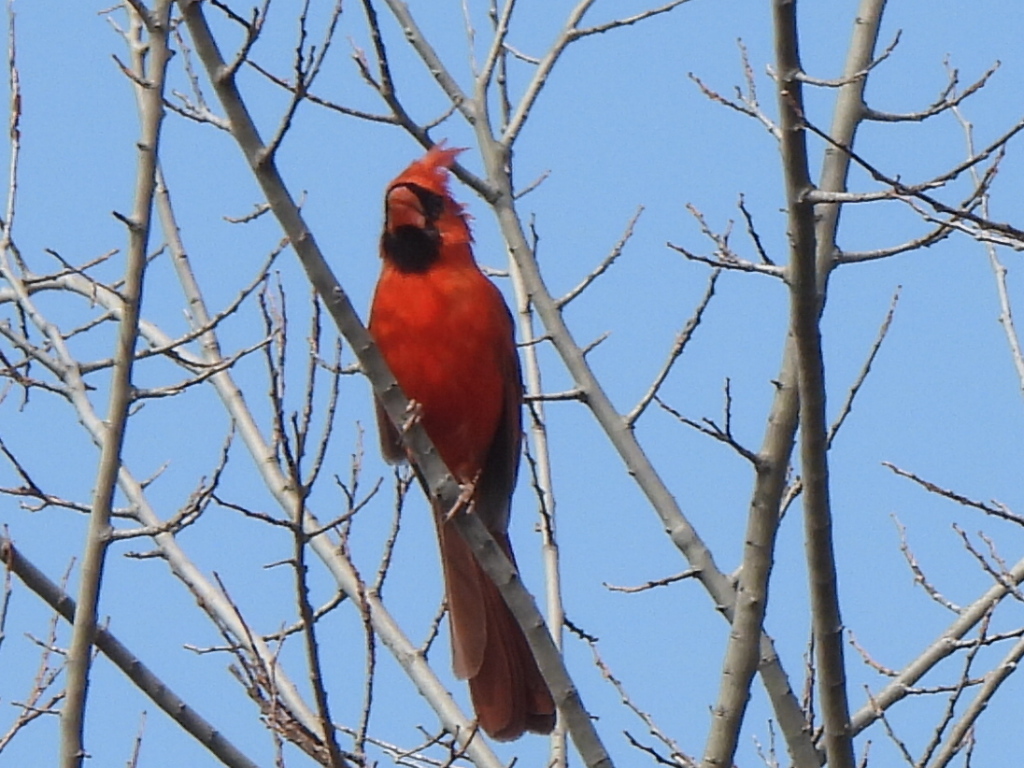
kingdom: Animalia
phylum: Chordata
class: Aves
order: Passeriformes
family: Cardinalidae
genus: Cardinalis
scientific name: Cardinalis cardinalis
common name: Northern cardinal
